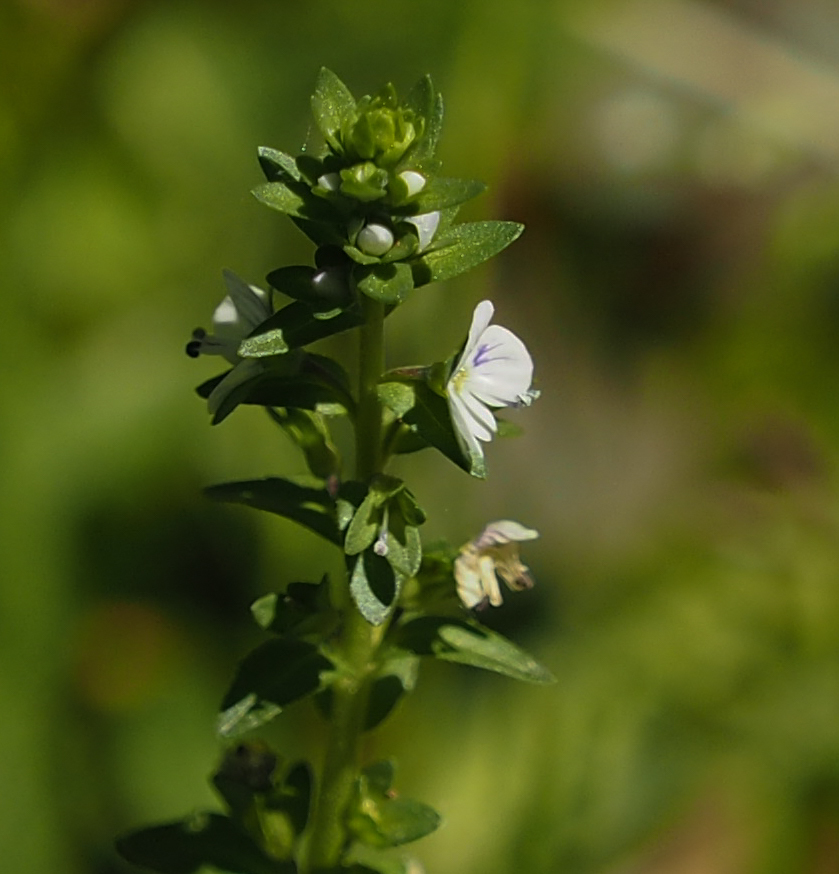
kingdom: Plantae
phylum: Tracheophyta
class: Magnoliopsida
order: Lamiales
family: Plantaginaceae
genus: Veronica
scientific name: Veronica serpyllifolia
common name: Thyme-leaved speedwell
